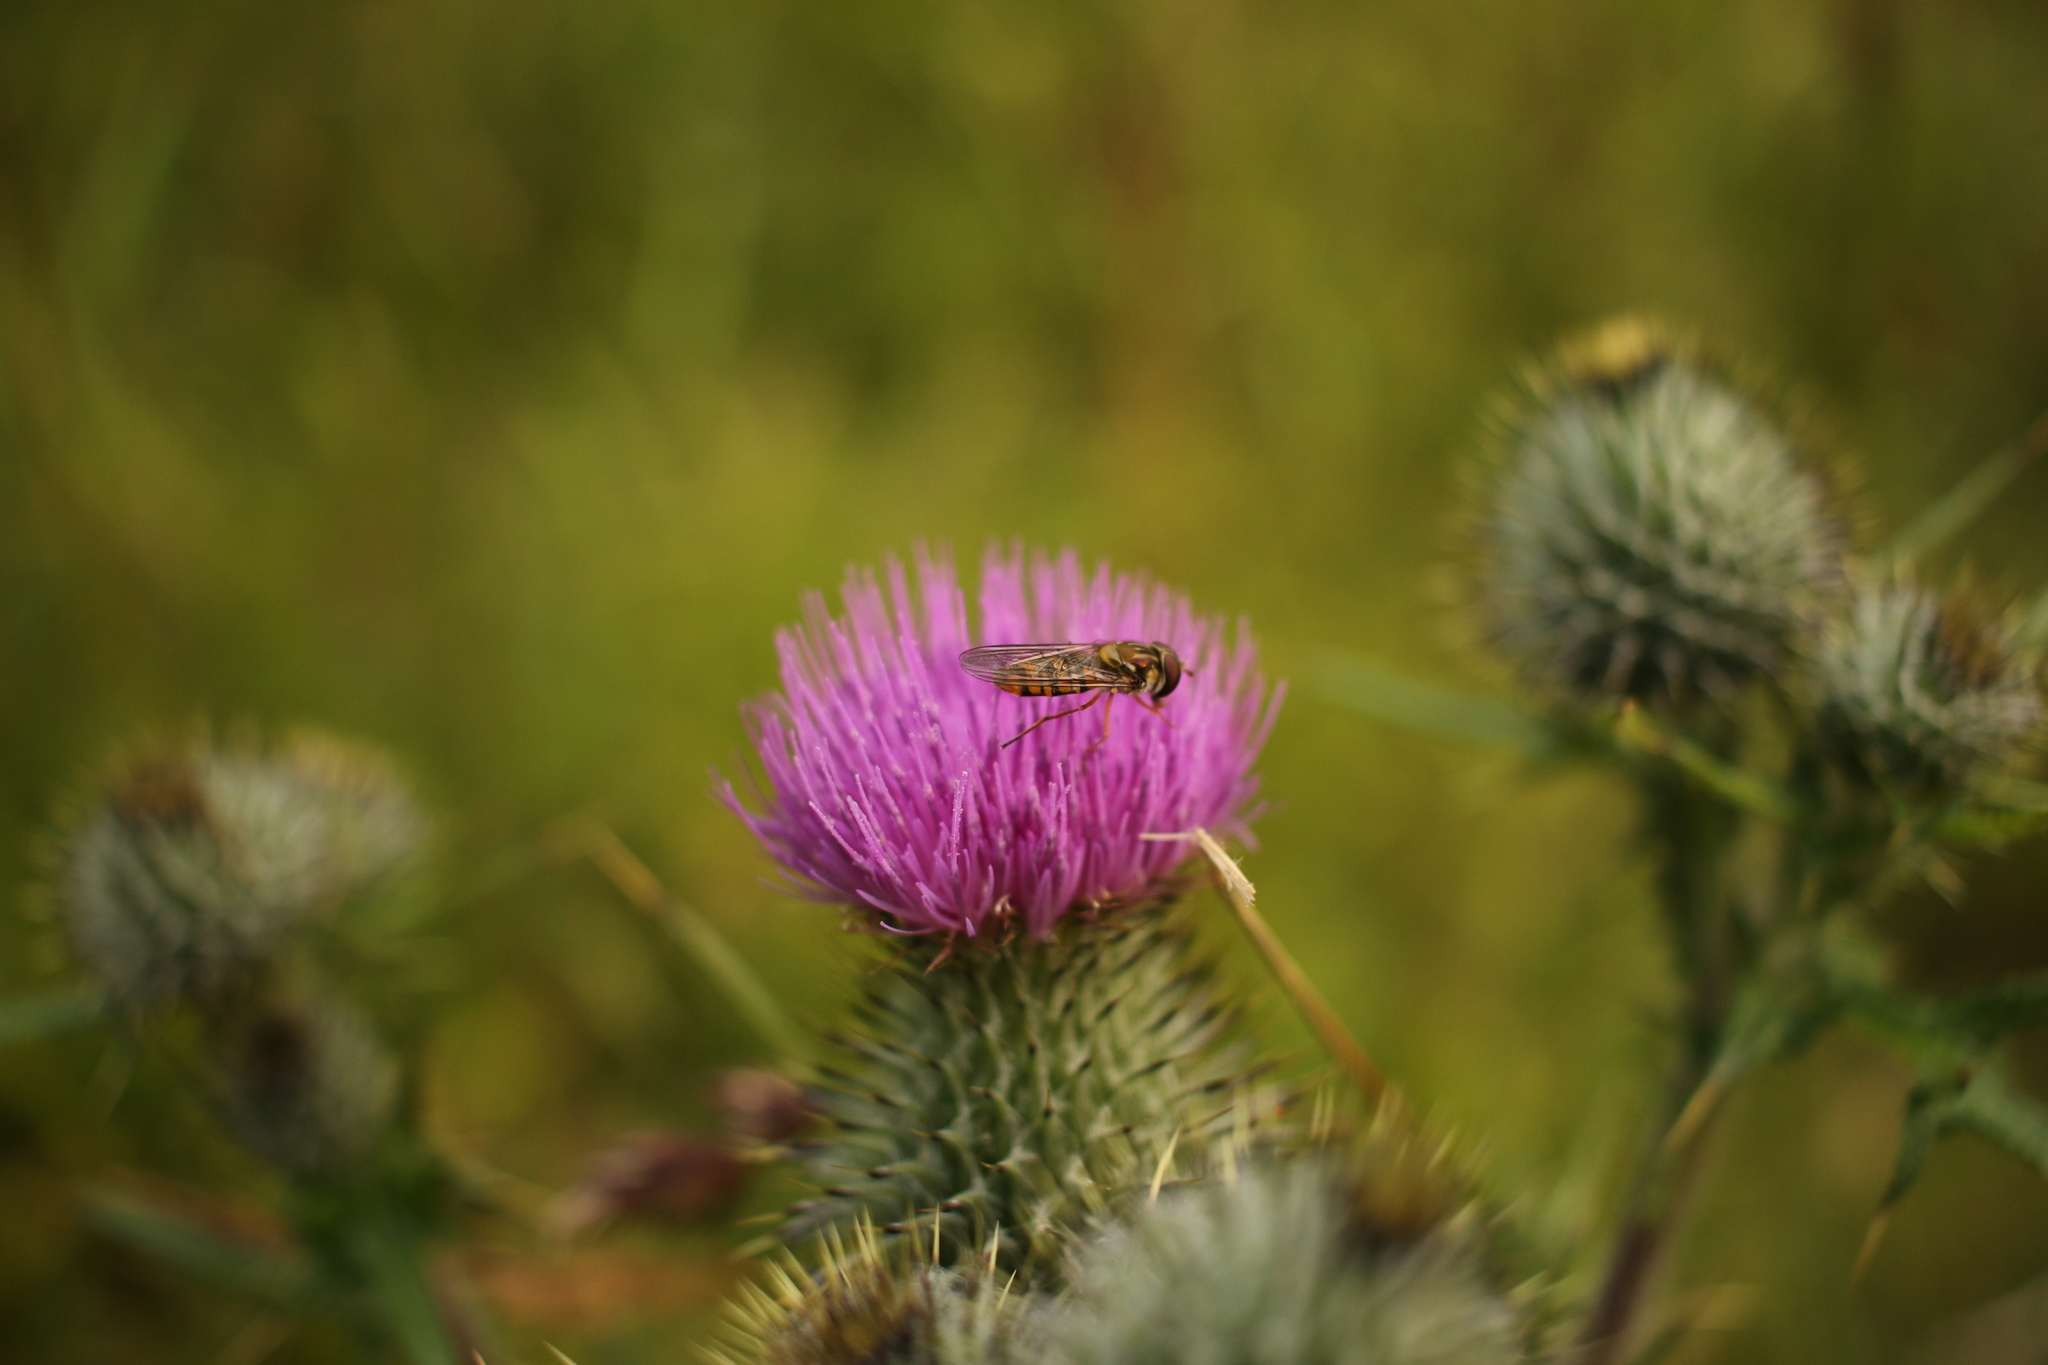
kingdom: Animalia
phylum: Arthropoda
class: Insecta
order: Diptera
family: Syrphidae
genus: Episyrphus
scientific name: Episyrphus balteatus
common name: Marmalade hoverfly
